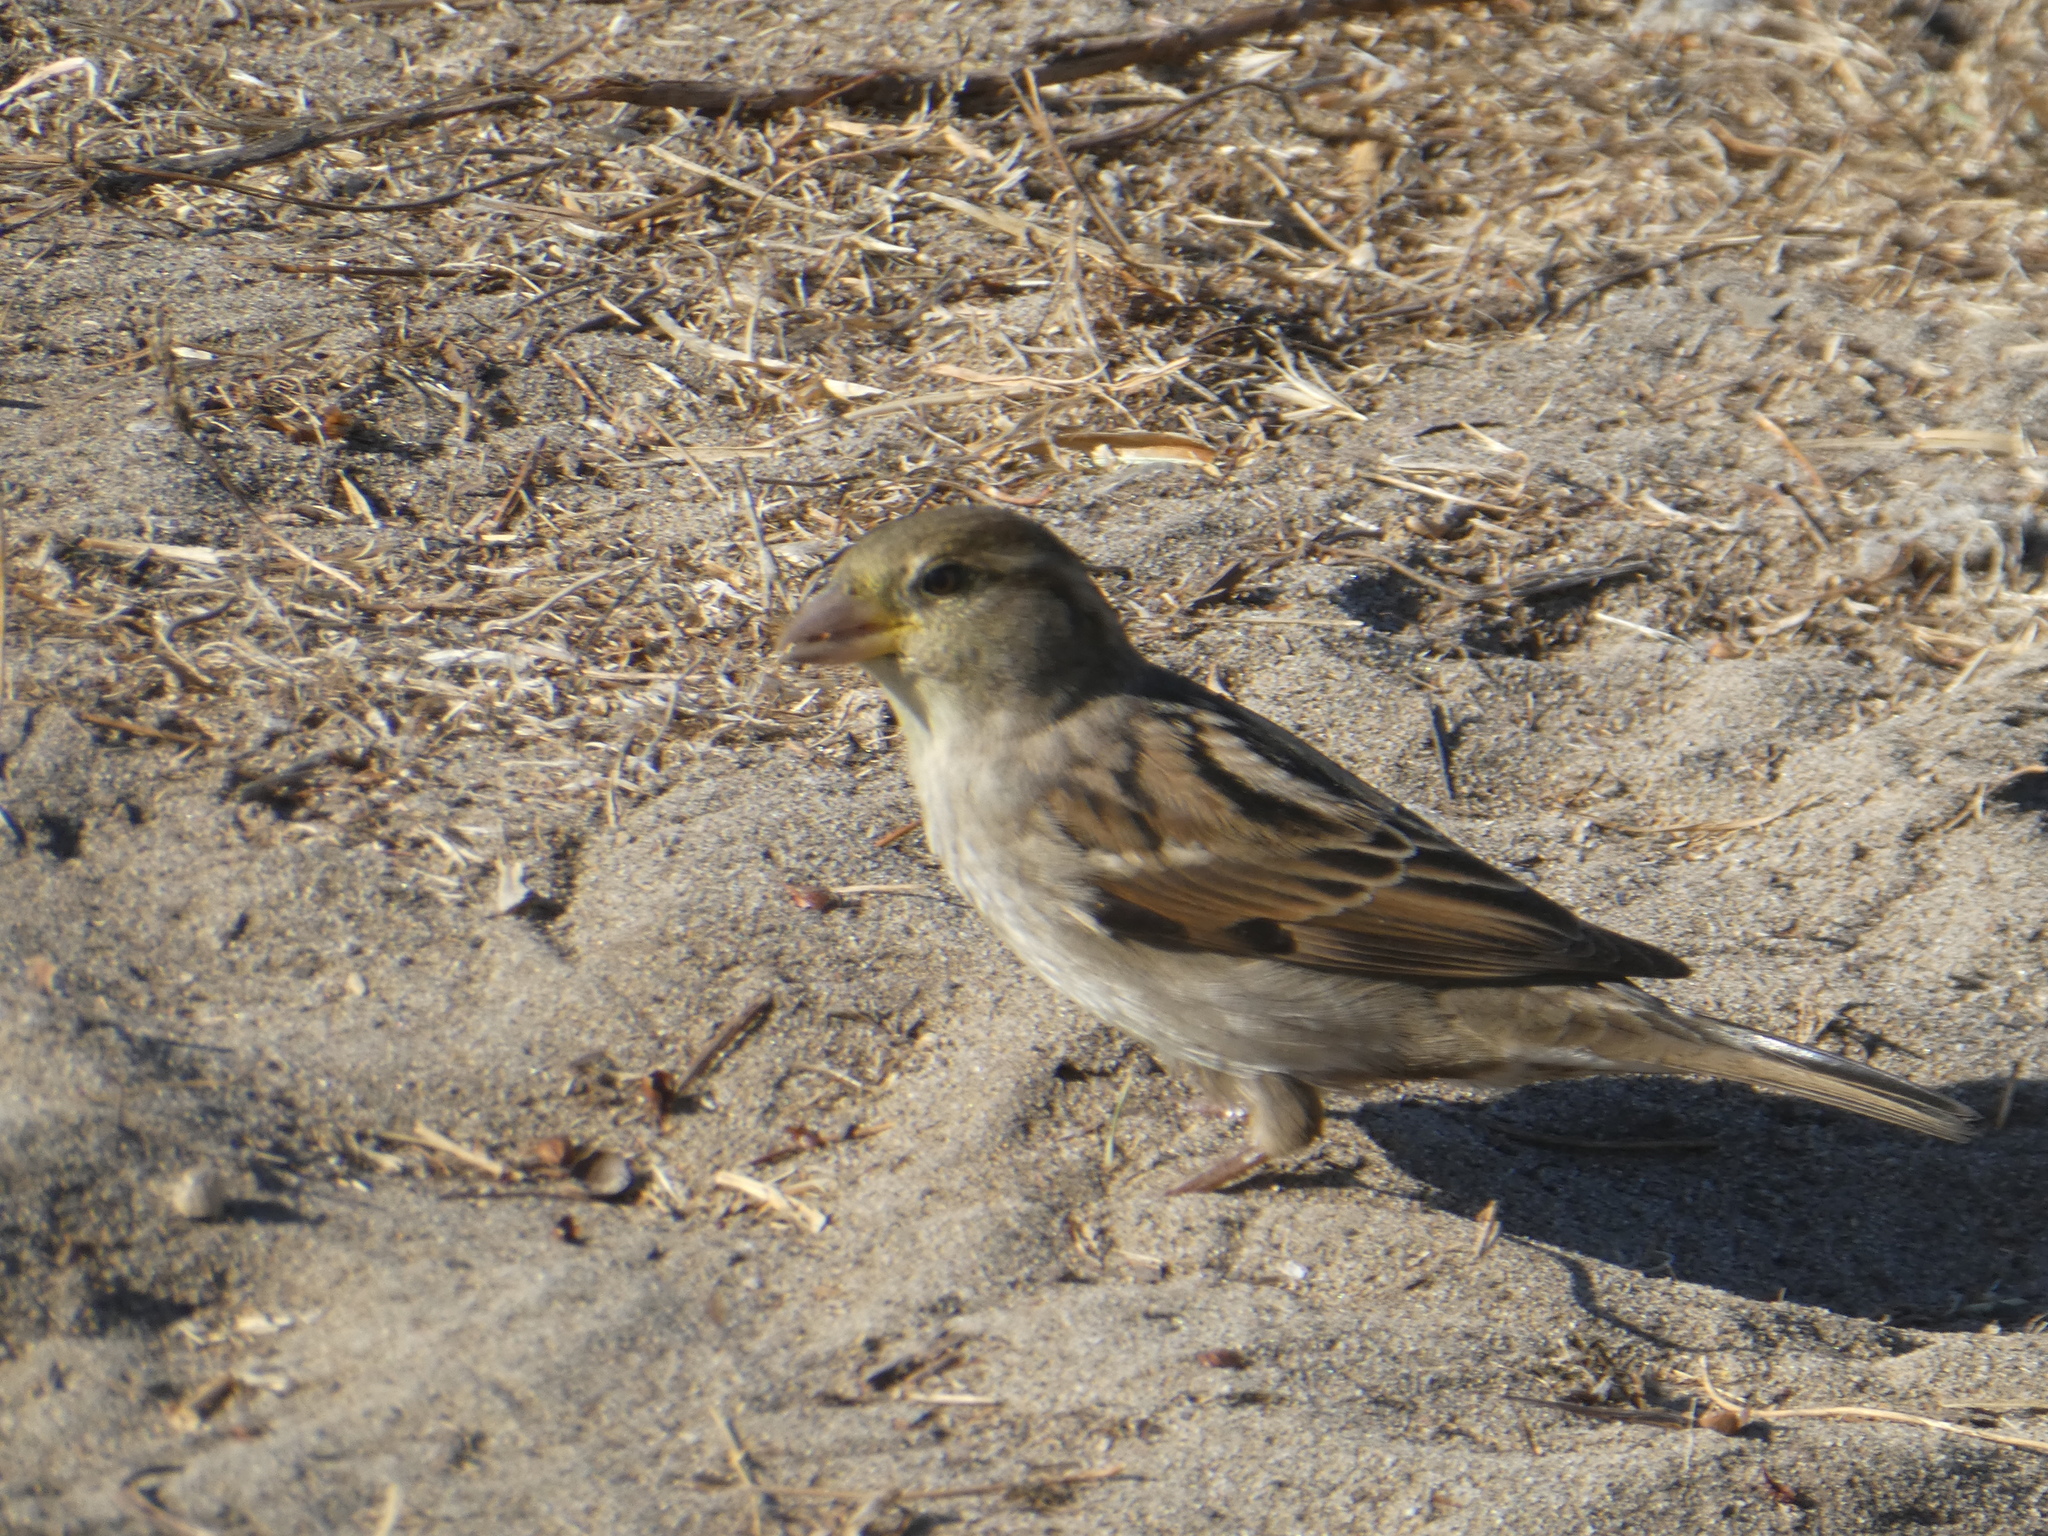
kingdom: Animalia
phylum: Chordata
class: Aves
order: Passeriformes
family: Passeridae
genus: Passer
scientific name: Passer domesticus
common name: House sparrow
